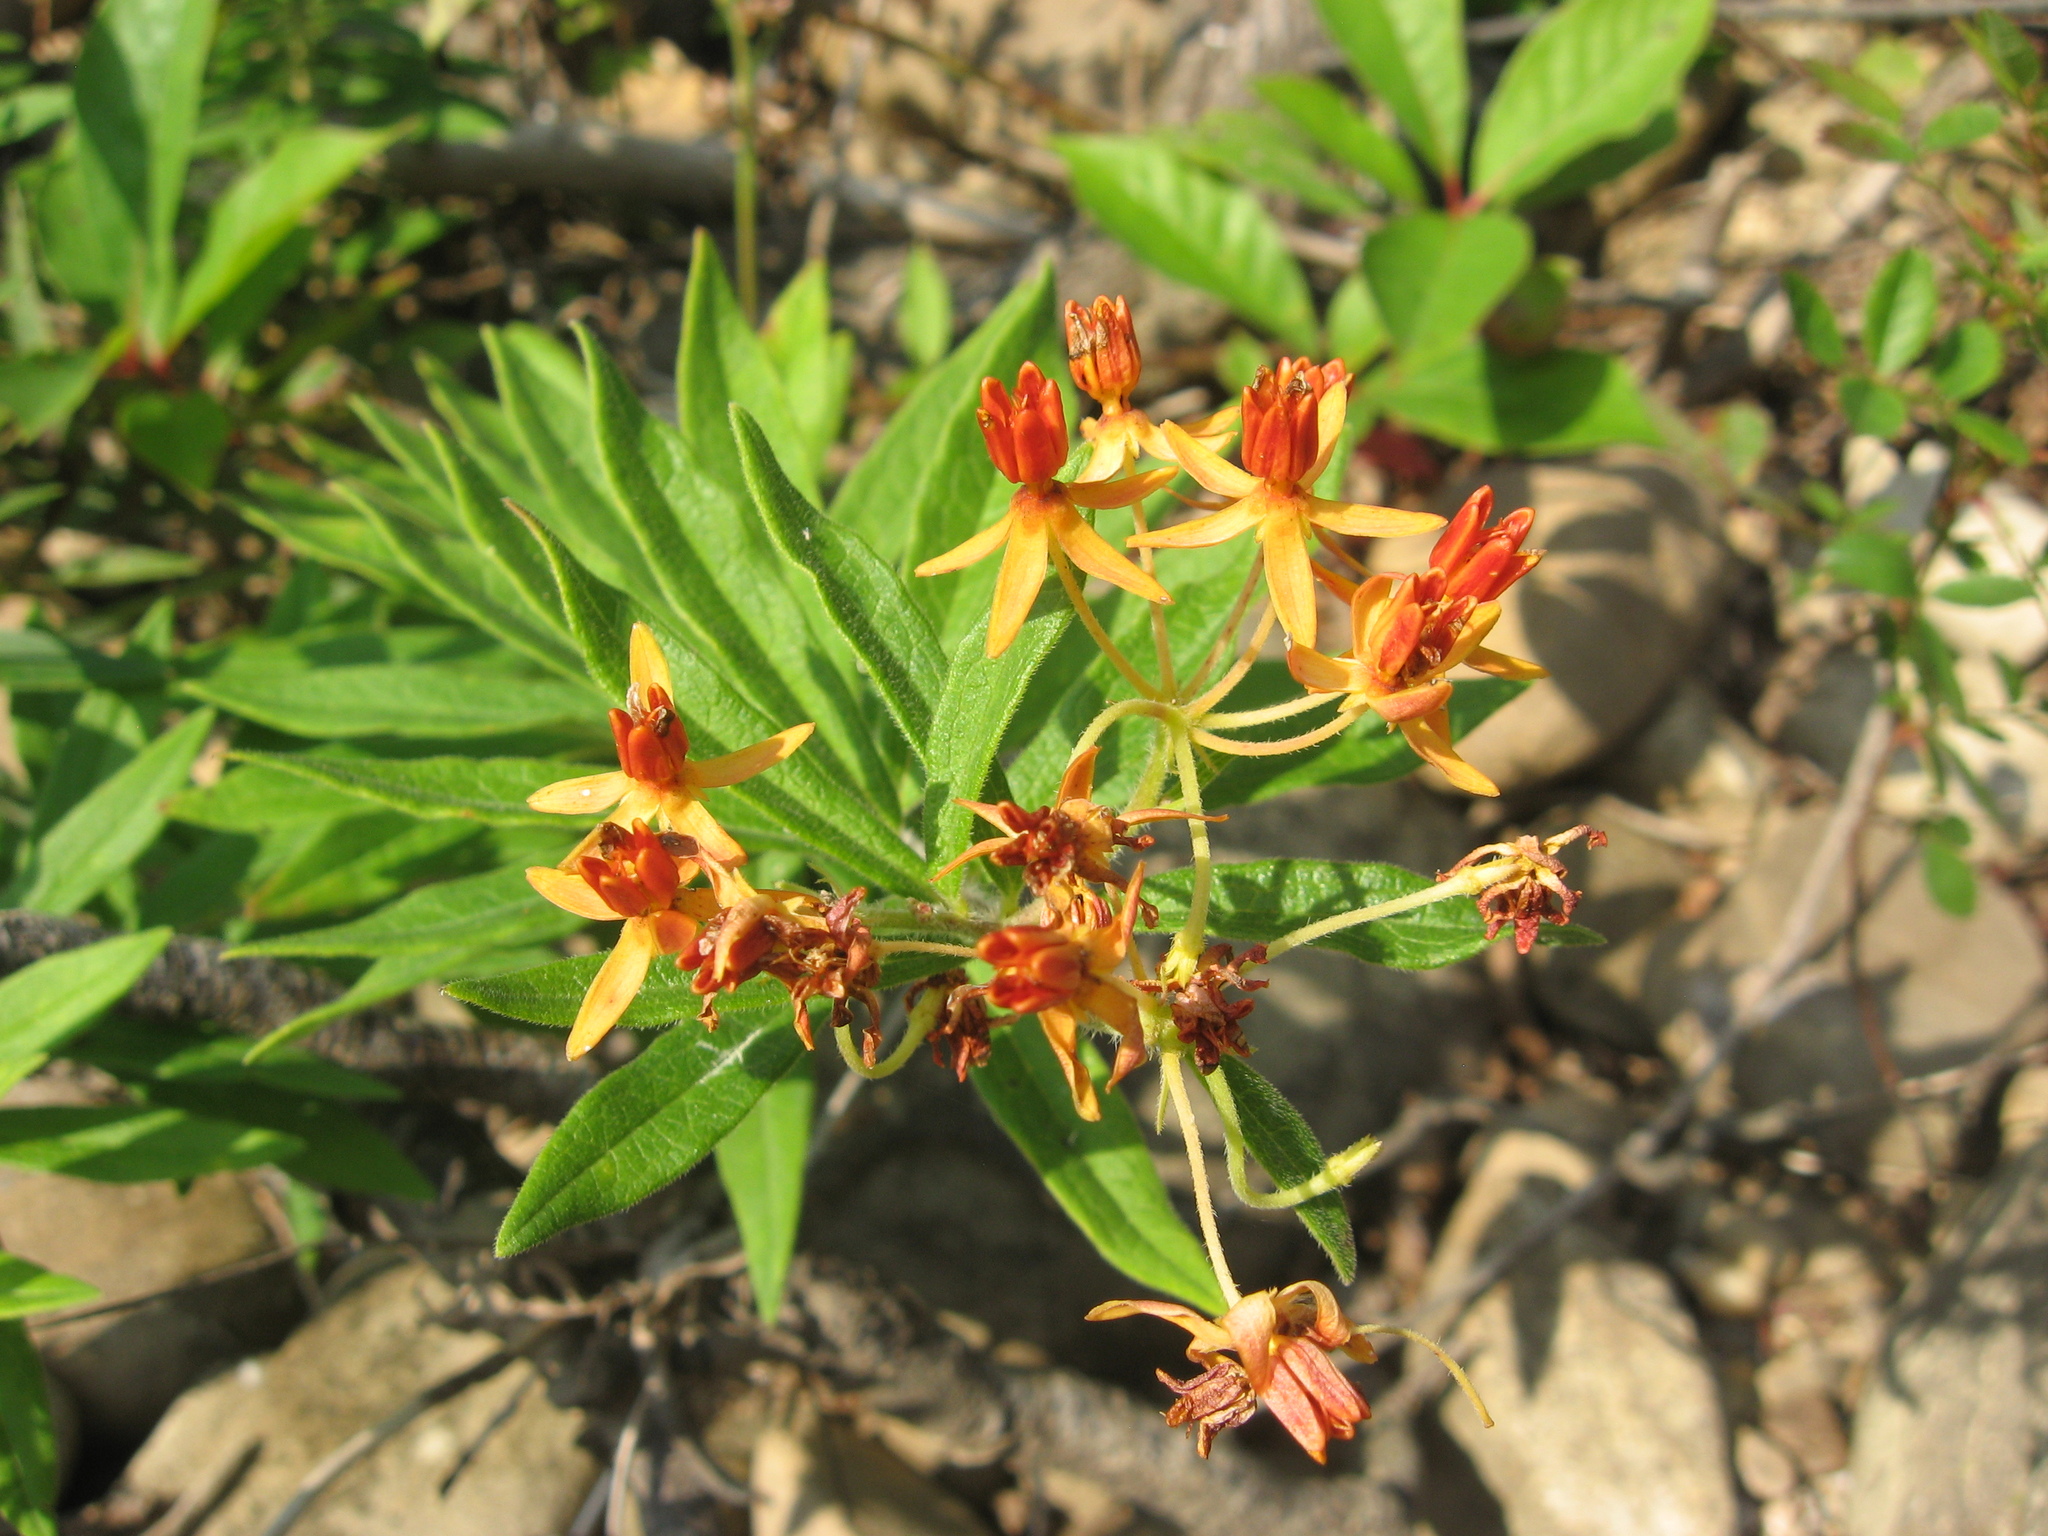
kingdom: Plantae
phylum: Tracheophyta
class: Magnoliopsida
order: Gentianales
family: Apocynaceae
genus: Asclepias
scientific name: Asclepias tuberosa
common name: Butterfly milkweed
